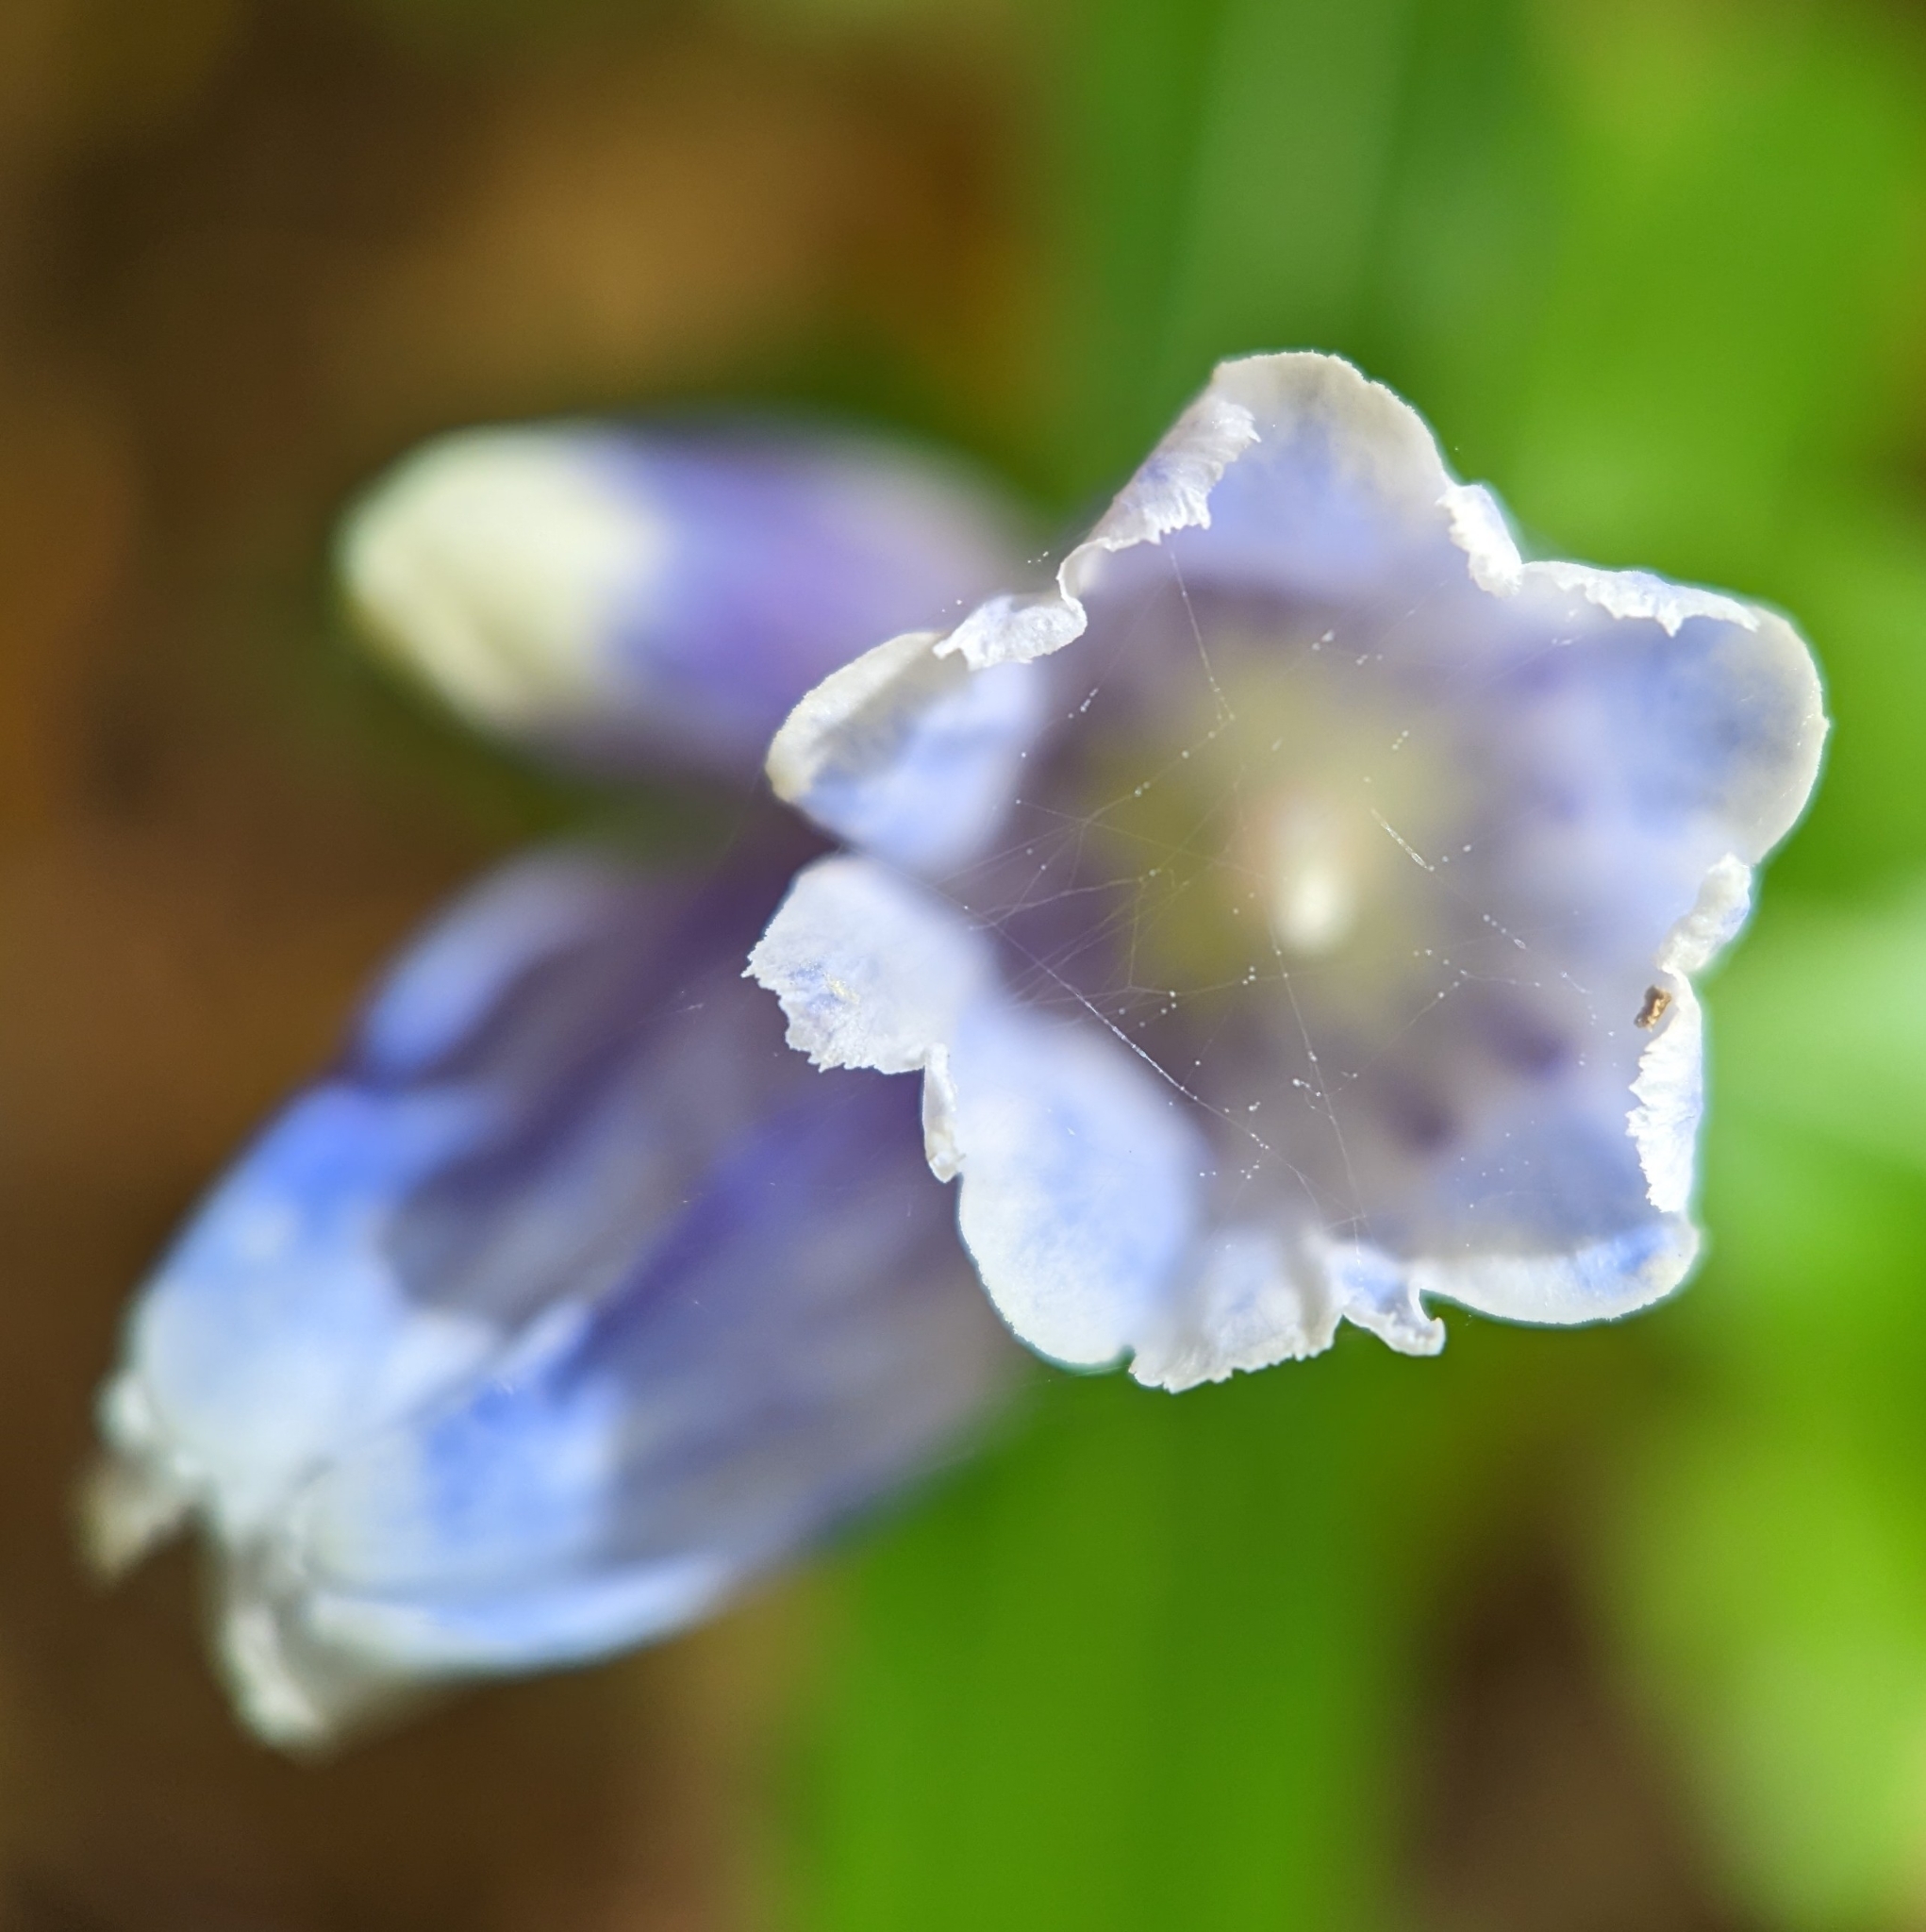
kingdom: Plantae
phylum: Tracheophyta
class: Magnoliopsida
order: Gentianales
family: Gentianaceae
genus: Gentiana
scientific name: Gentiana decora
